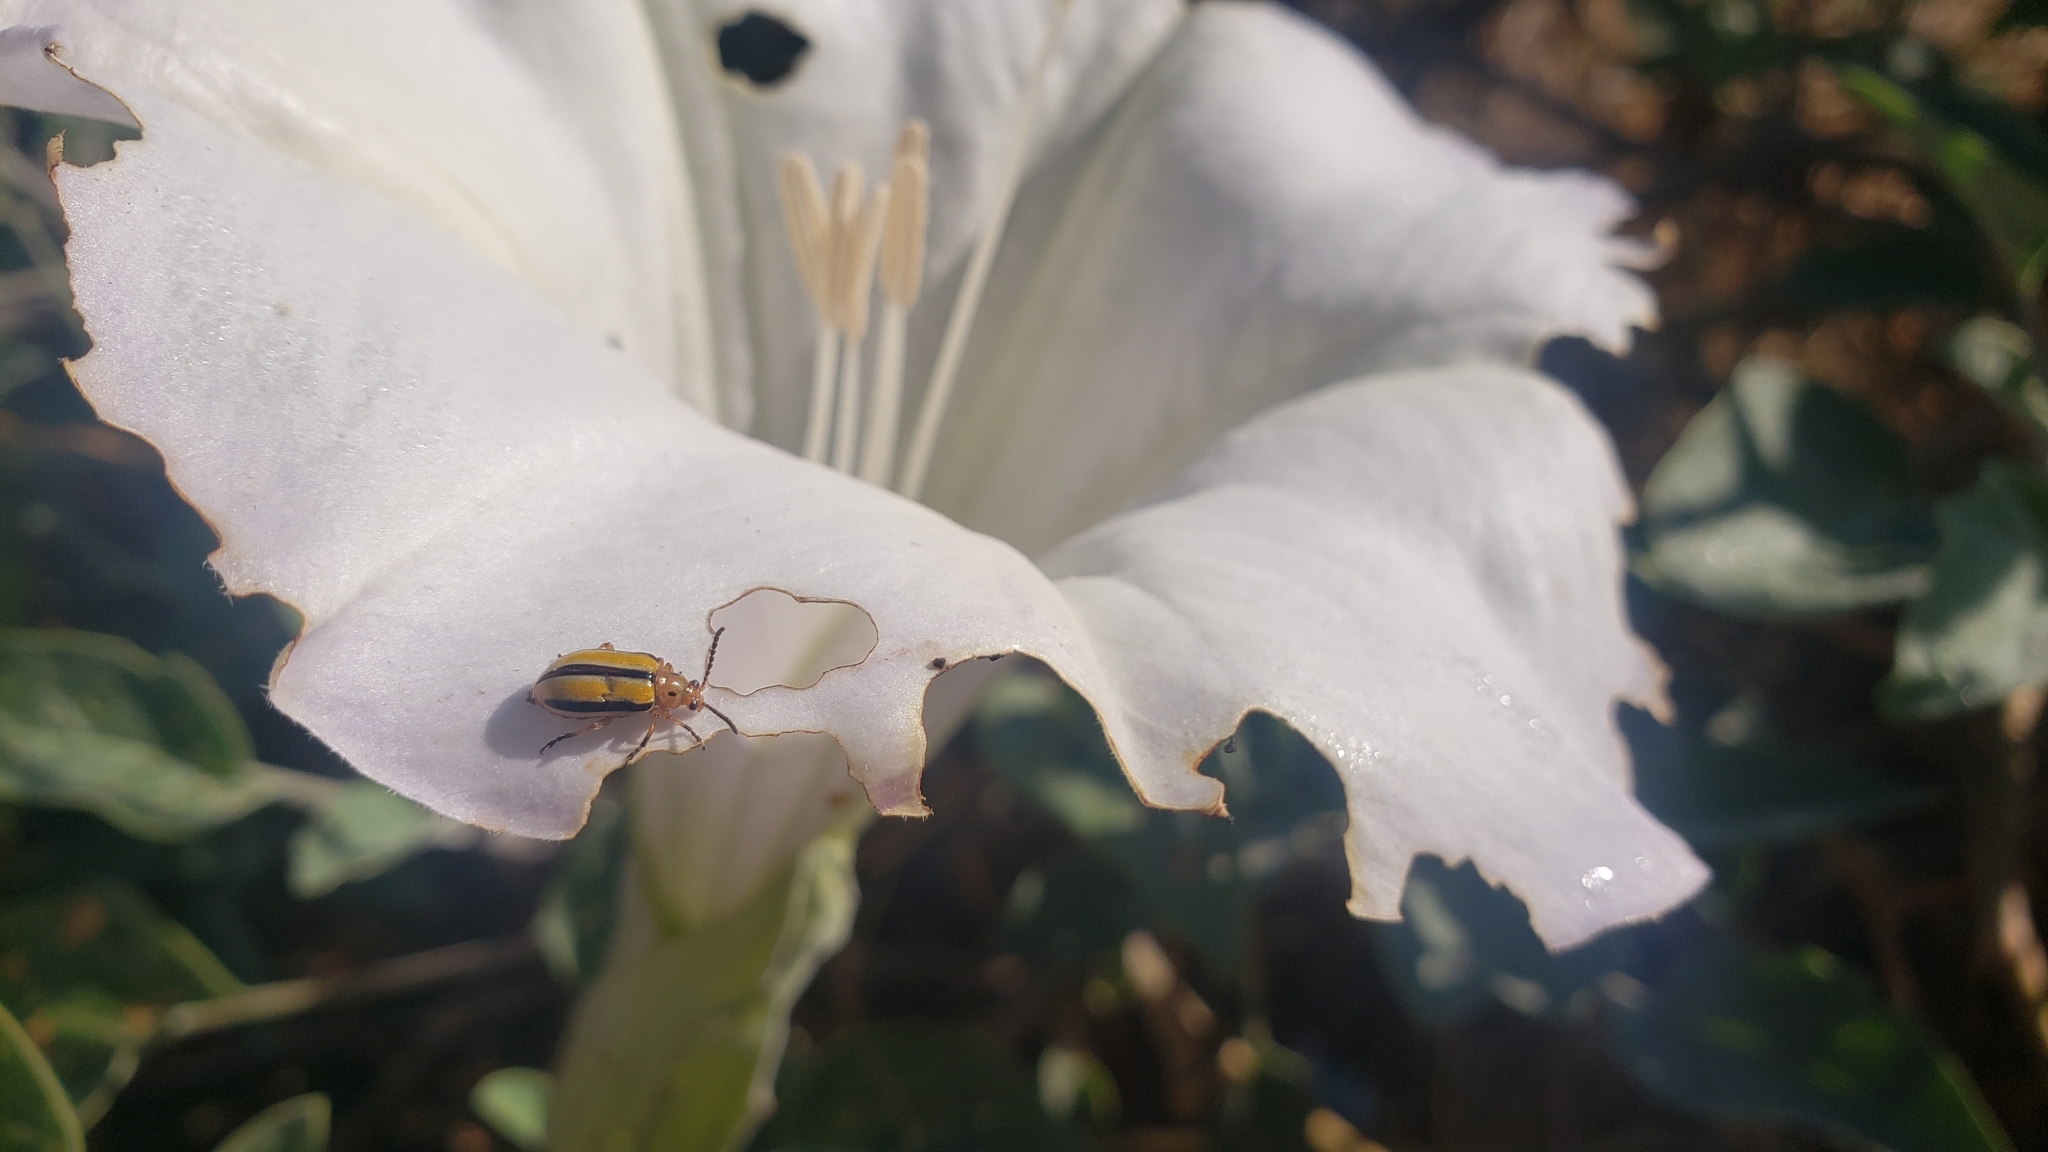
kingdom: Animalia
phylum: Arthropoda
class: Insecta
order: Coleoptera
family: Chrysomelidae
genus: Lema
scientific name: Lema daturaphila
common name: Leaf beetle
